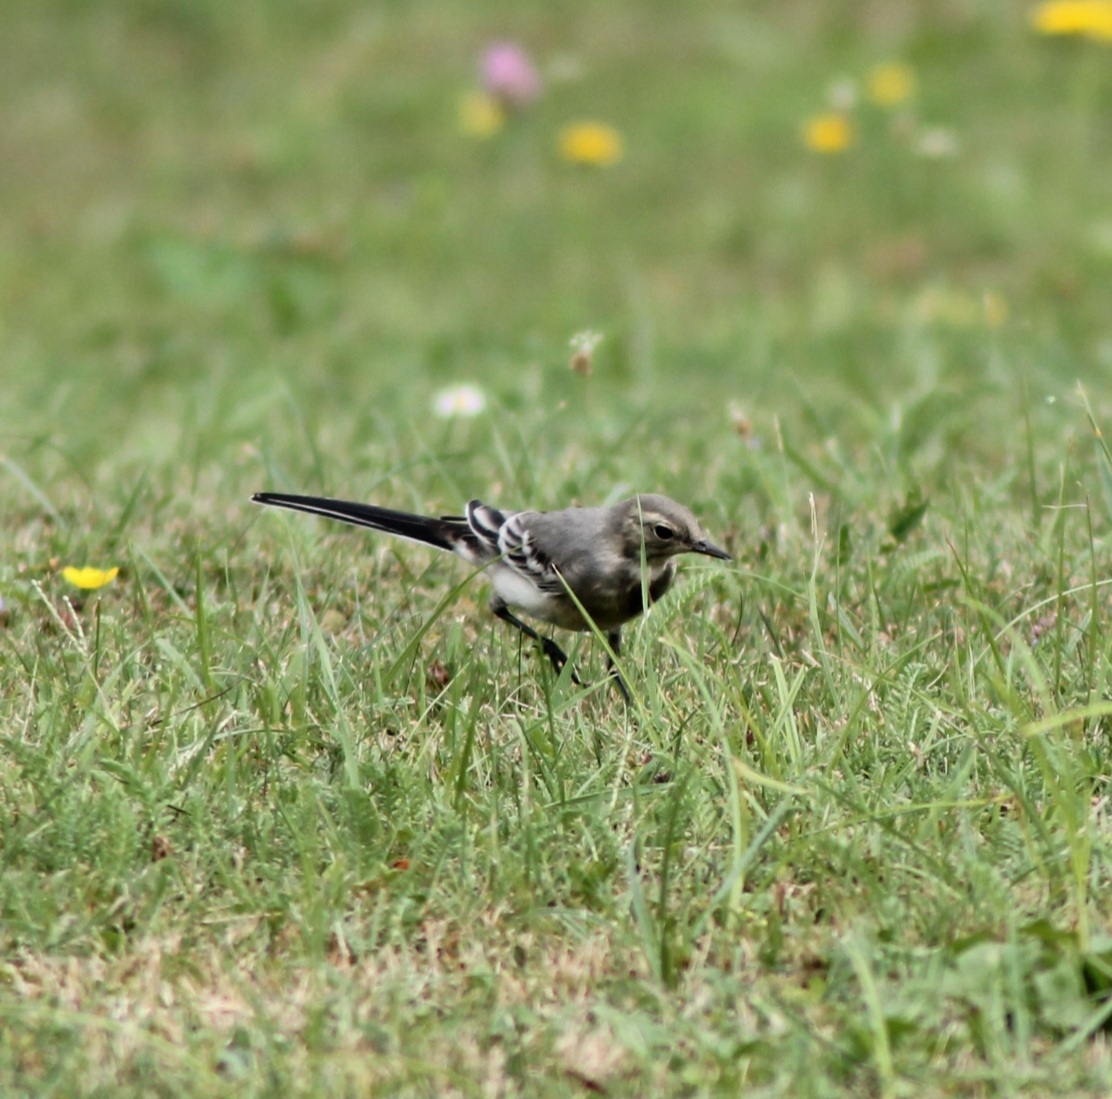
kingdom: Animalia
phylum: Chordata
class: Aves
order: Passeriformes
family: Motacillidae
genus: Motacilla
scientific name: Motacilla alba
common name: White wagtail
